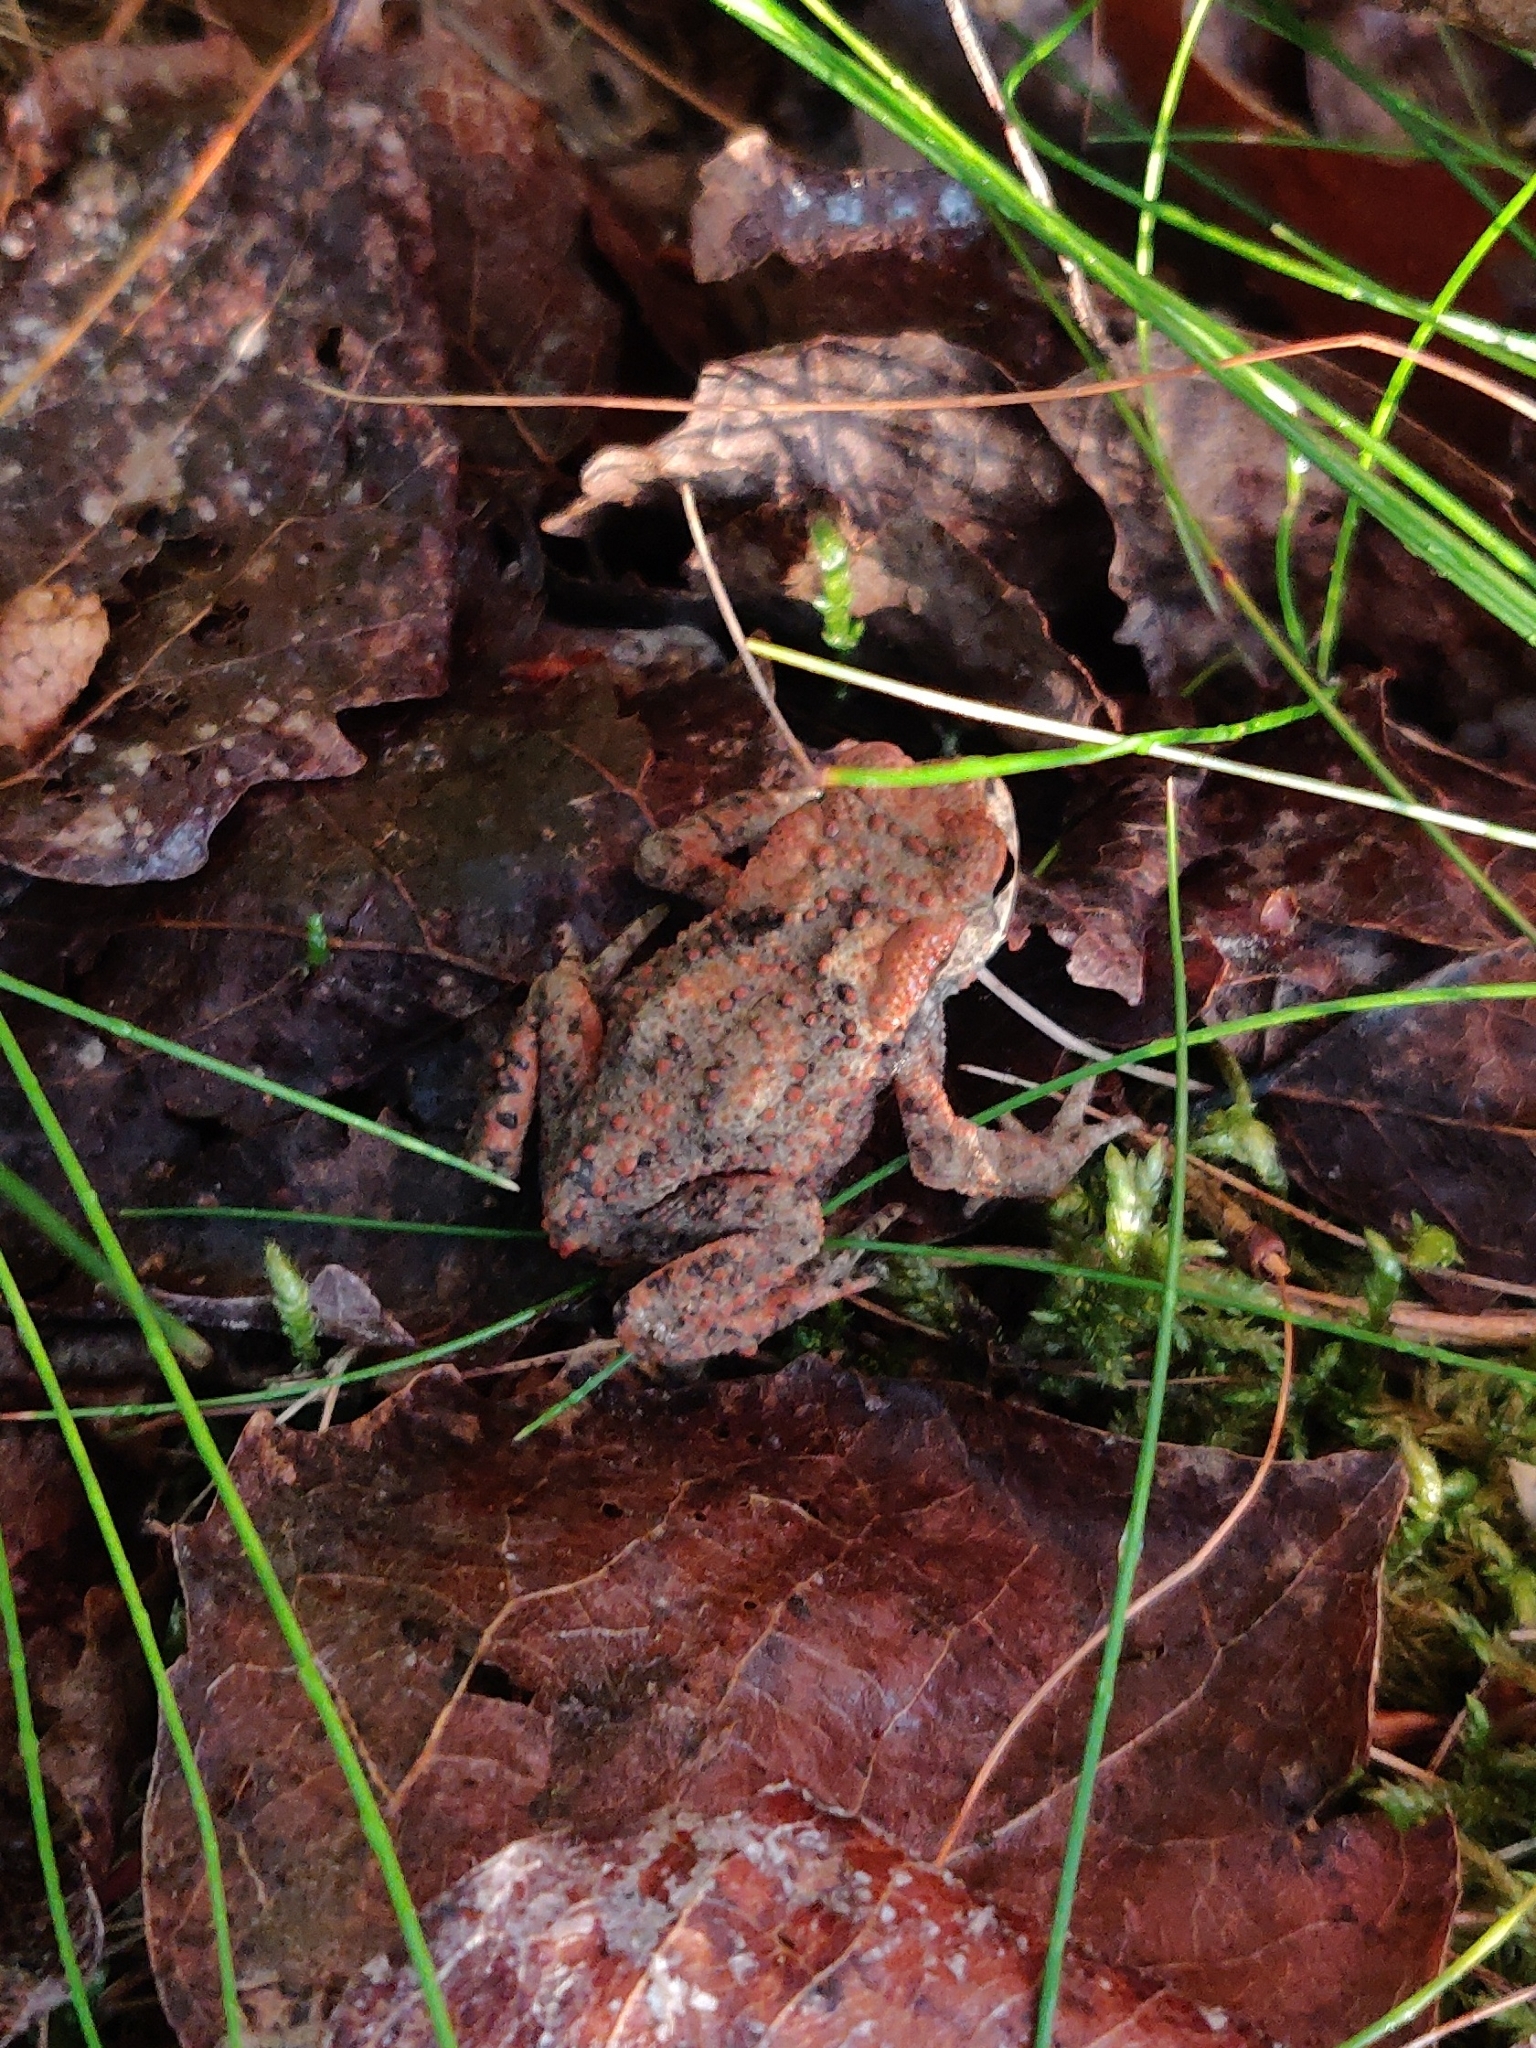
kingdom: Animalia
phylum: Chordata
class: Amphibia
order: Anura
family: Bufonidae
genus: Bufo
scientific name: Bufo bufo
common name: Common toad
